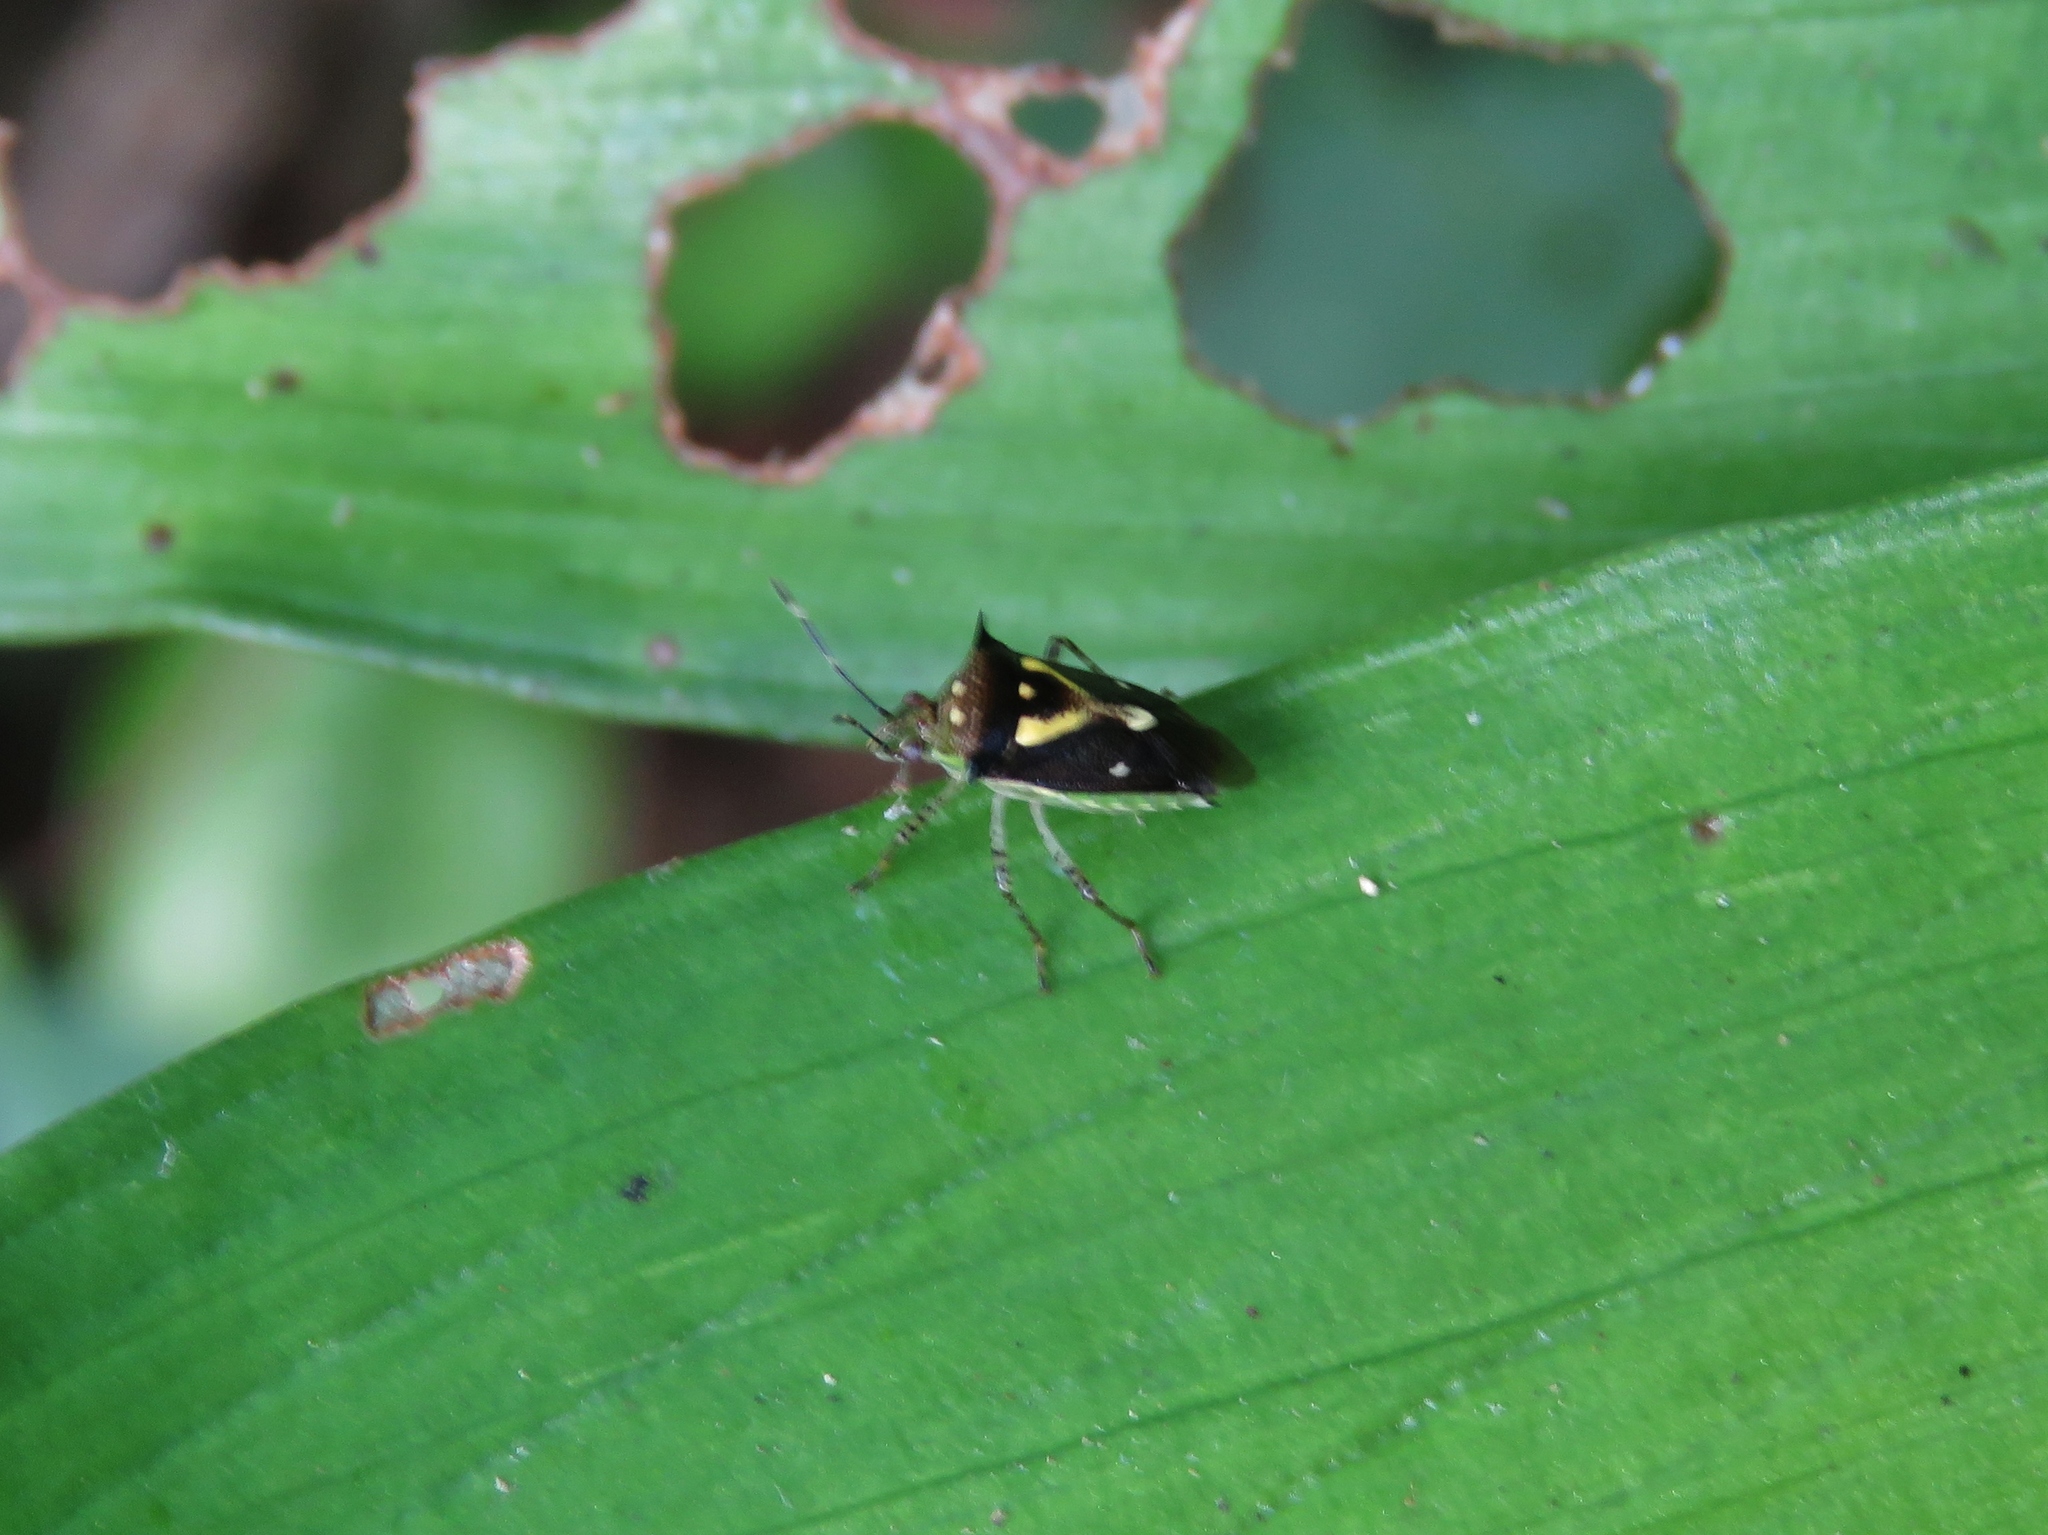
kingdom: Animalia
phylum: Arthropoda
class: Insecta
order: Hemiptera
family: Pentatomidae
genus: Mormidea
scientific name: Mormidea ypsilon
